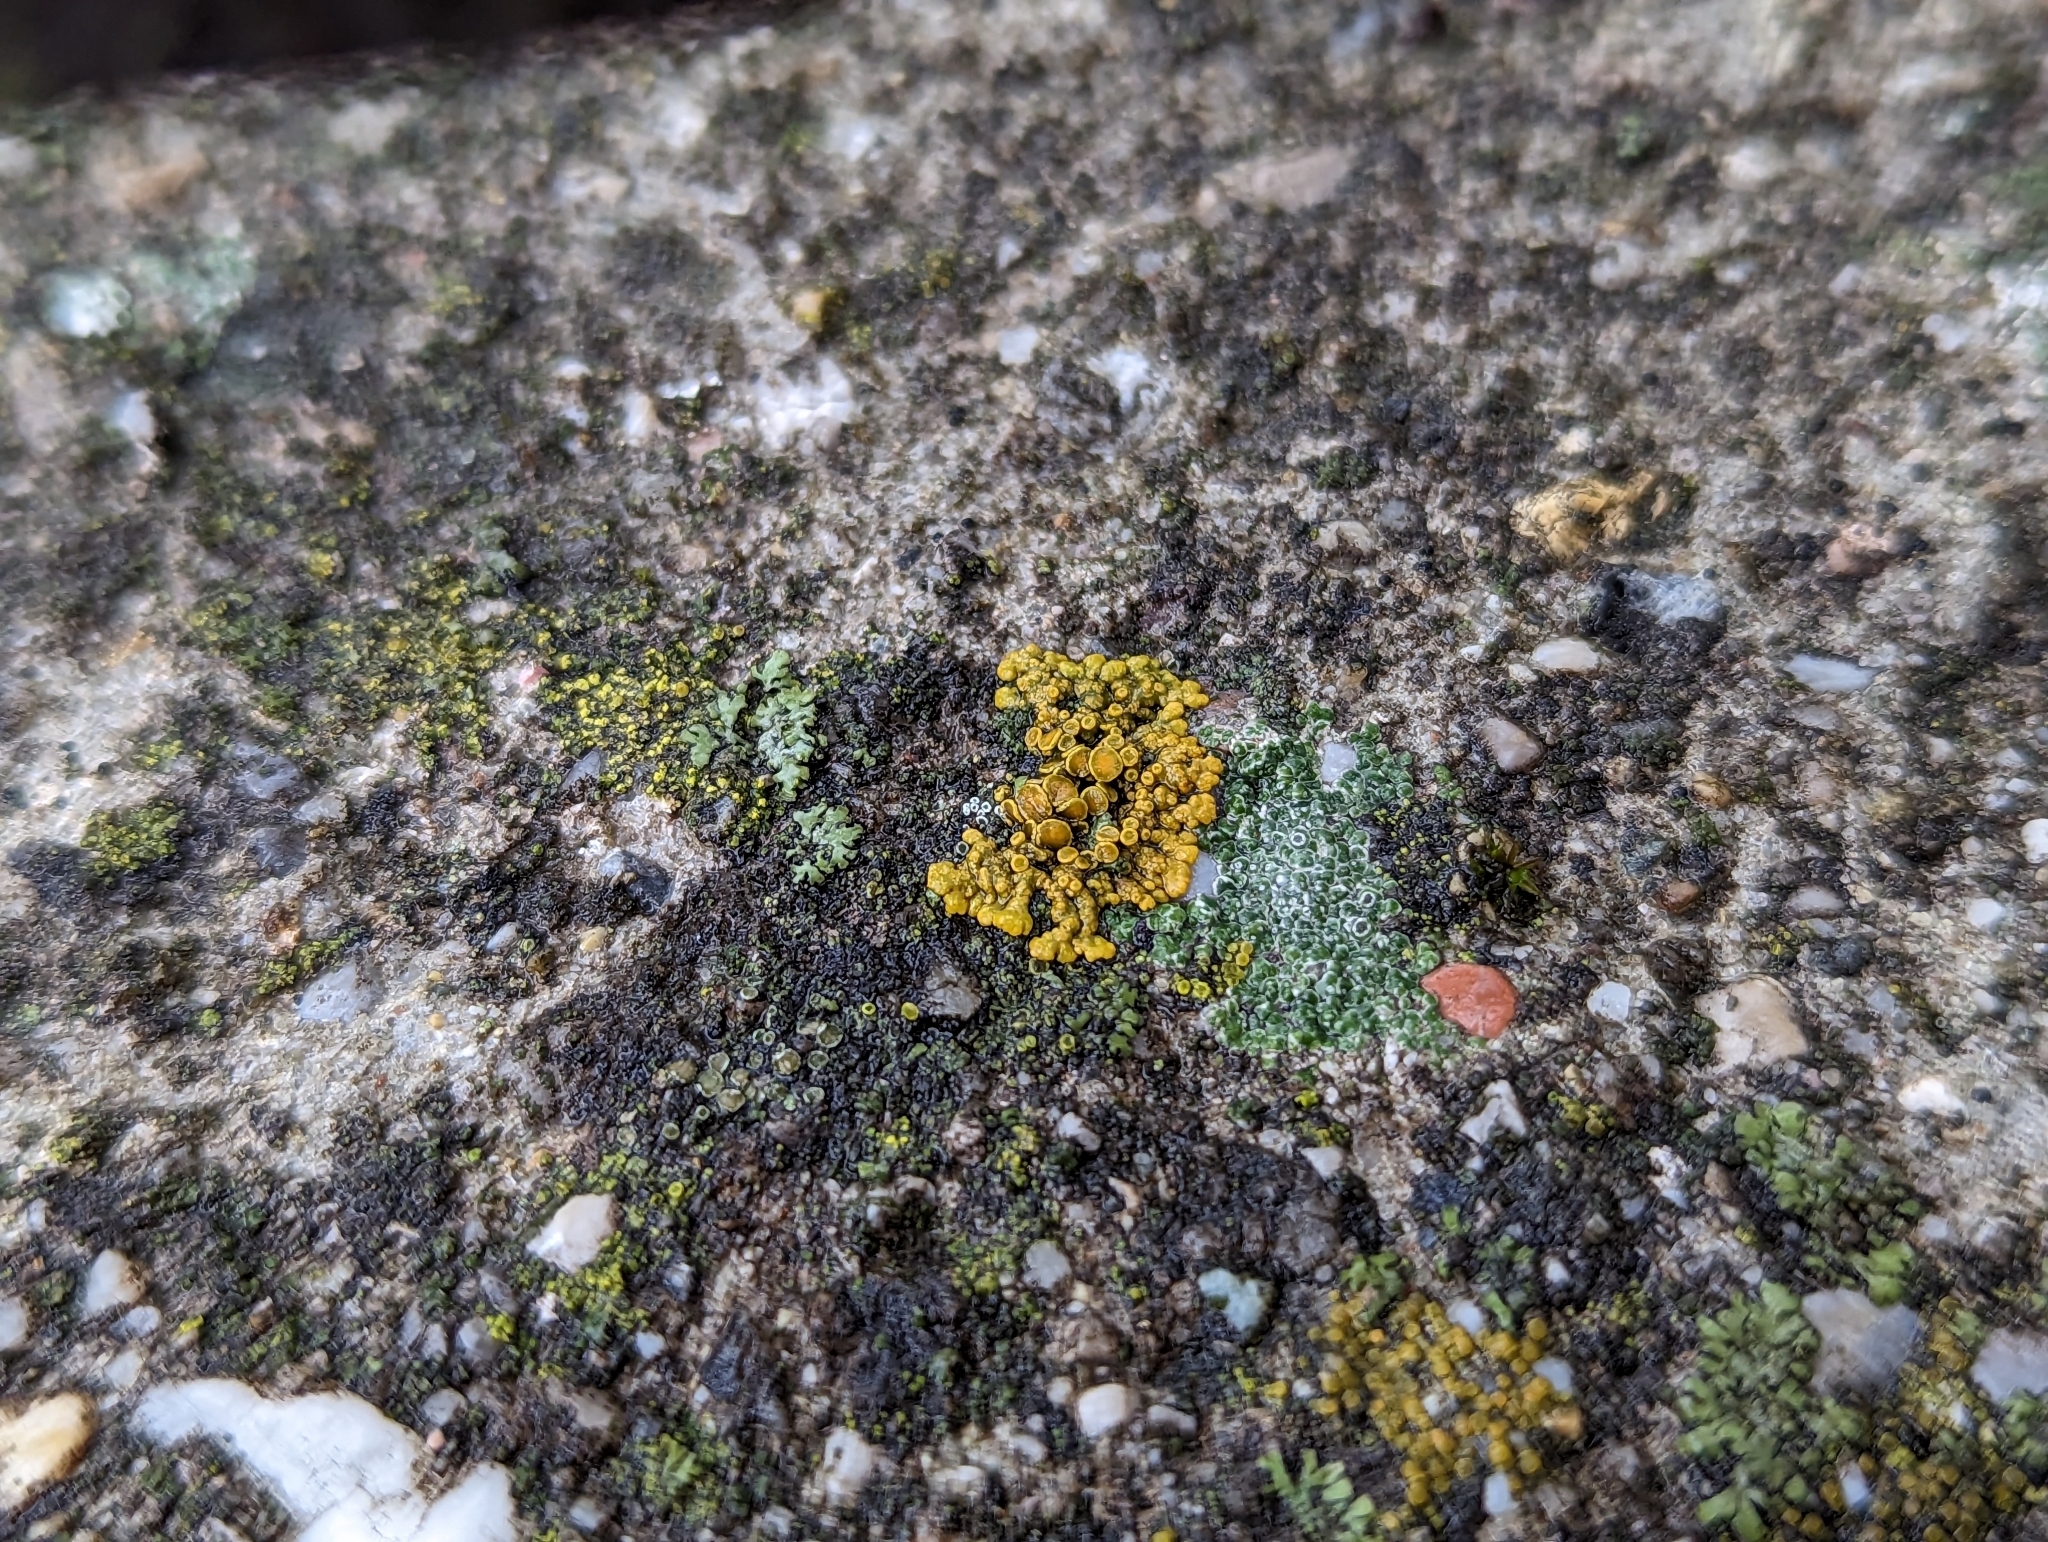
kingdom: Fungi
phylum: Ascomycota
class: Lecanoromycetes
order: Pertusariales
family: Megasporaceae
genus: Circinaria
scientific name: Circinaria contorta
